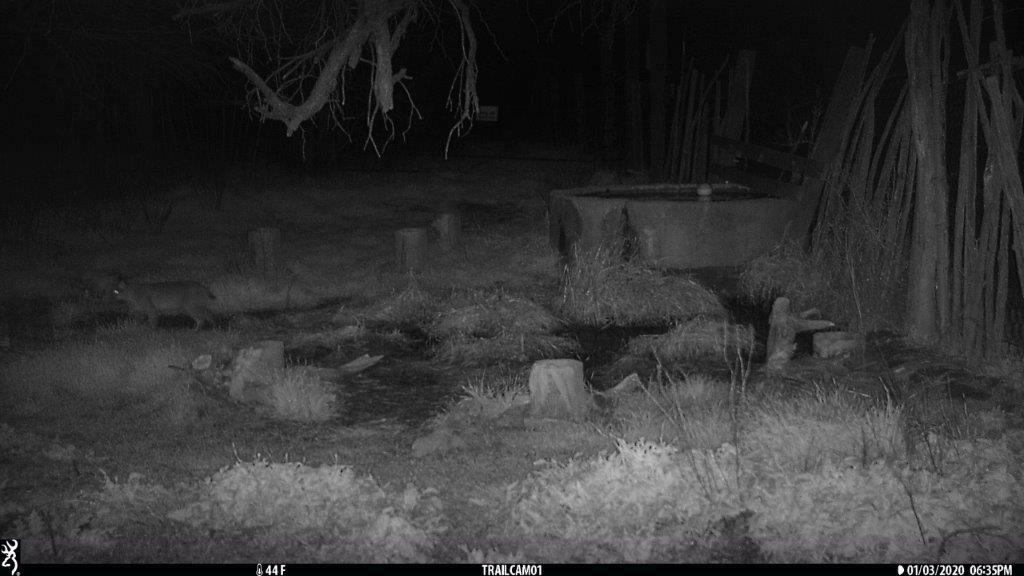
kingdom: Animalia
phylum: Chordata
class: Mammalia
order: Carnivora
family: Felidae
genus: Lynx
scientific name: Lynx rufus
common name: Bobcat
